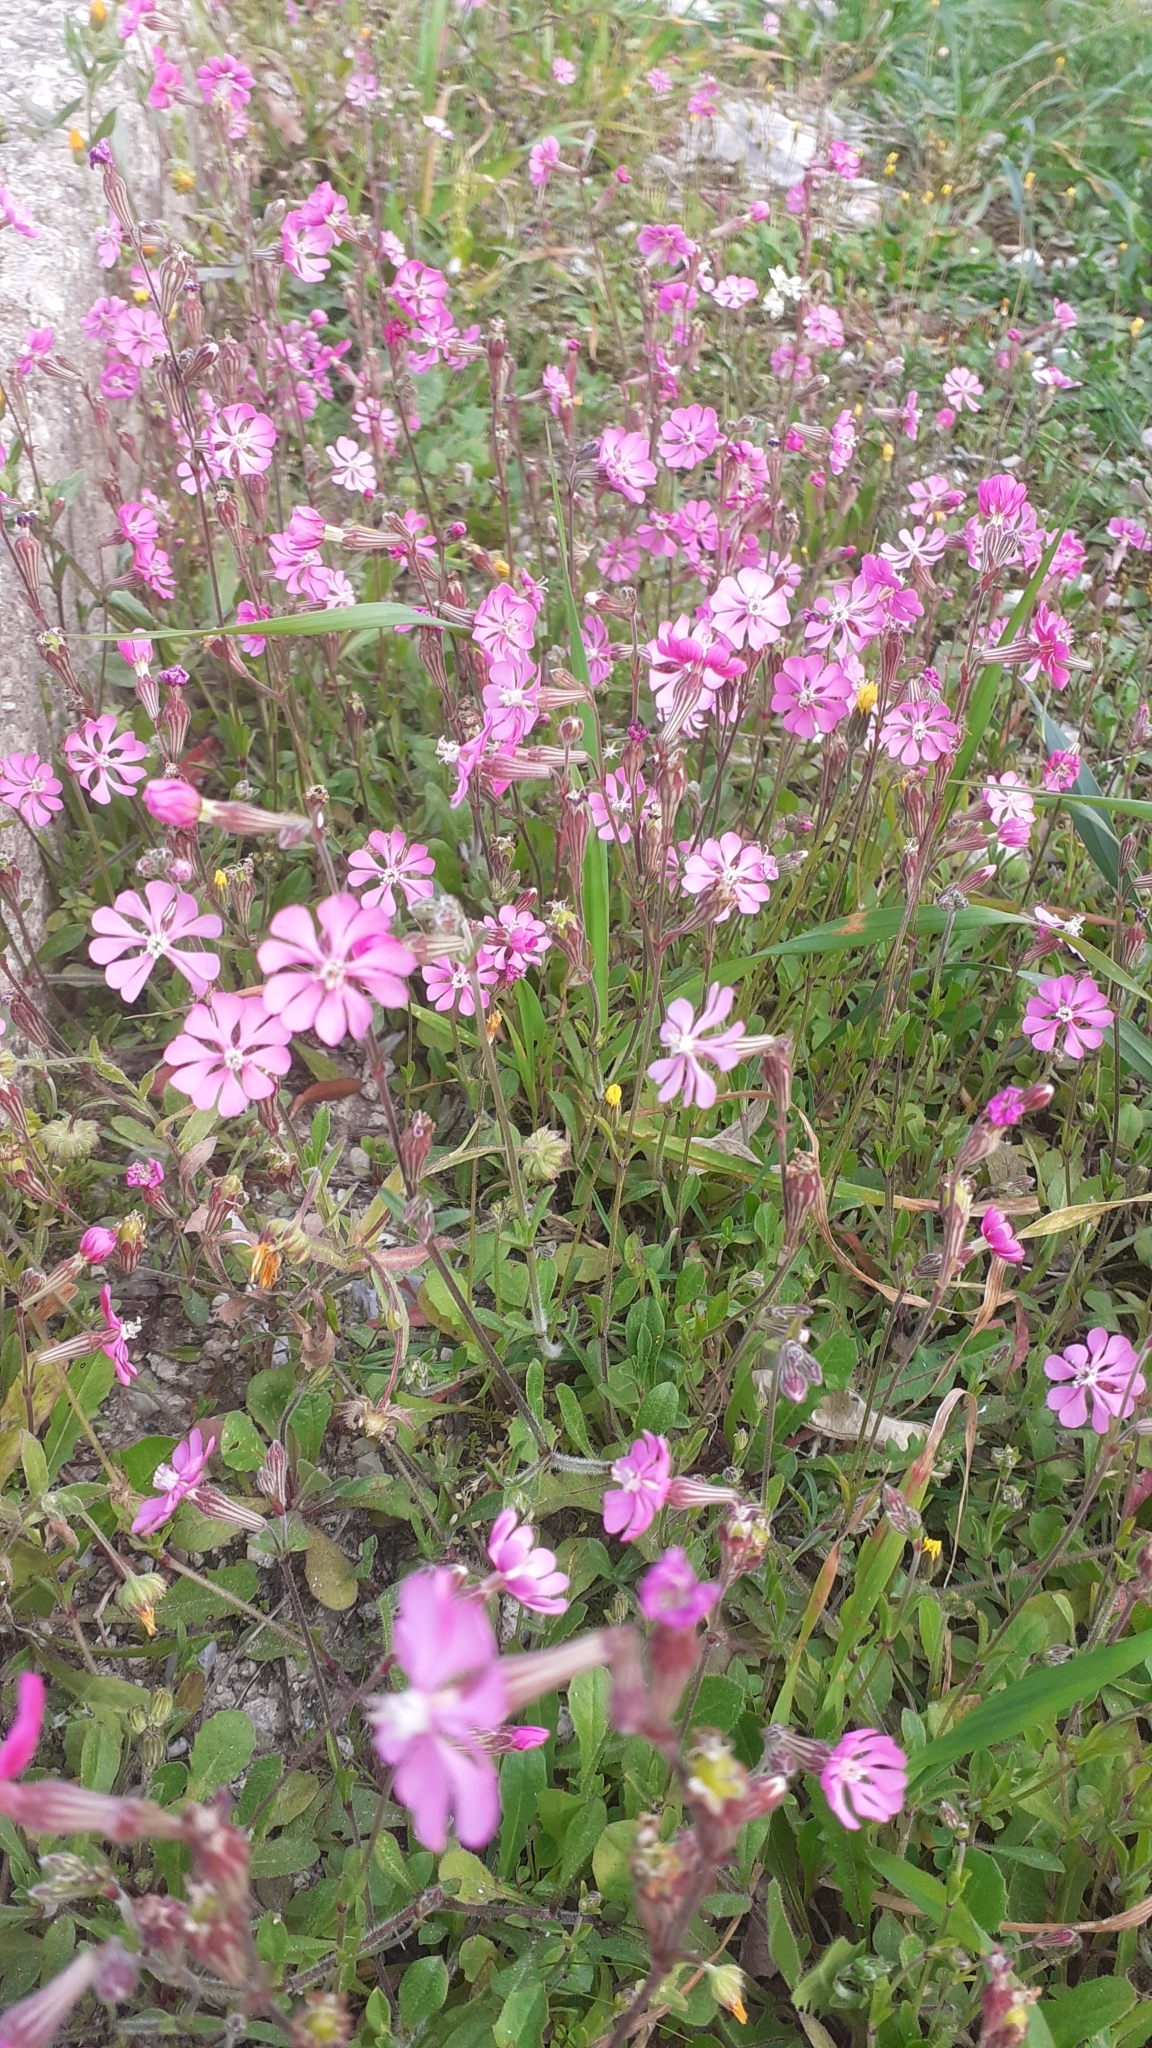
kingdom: Plantae
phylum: Tracheophyta
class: Magnoliopsida
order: Caryophyllales
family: Caryophyllaceae
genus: Silene
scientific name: Silene colorata
